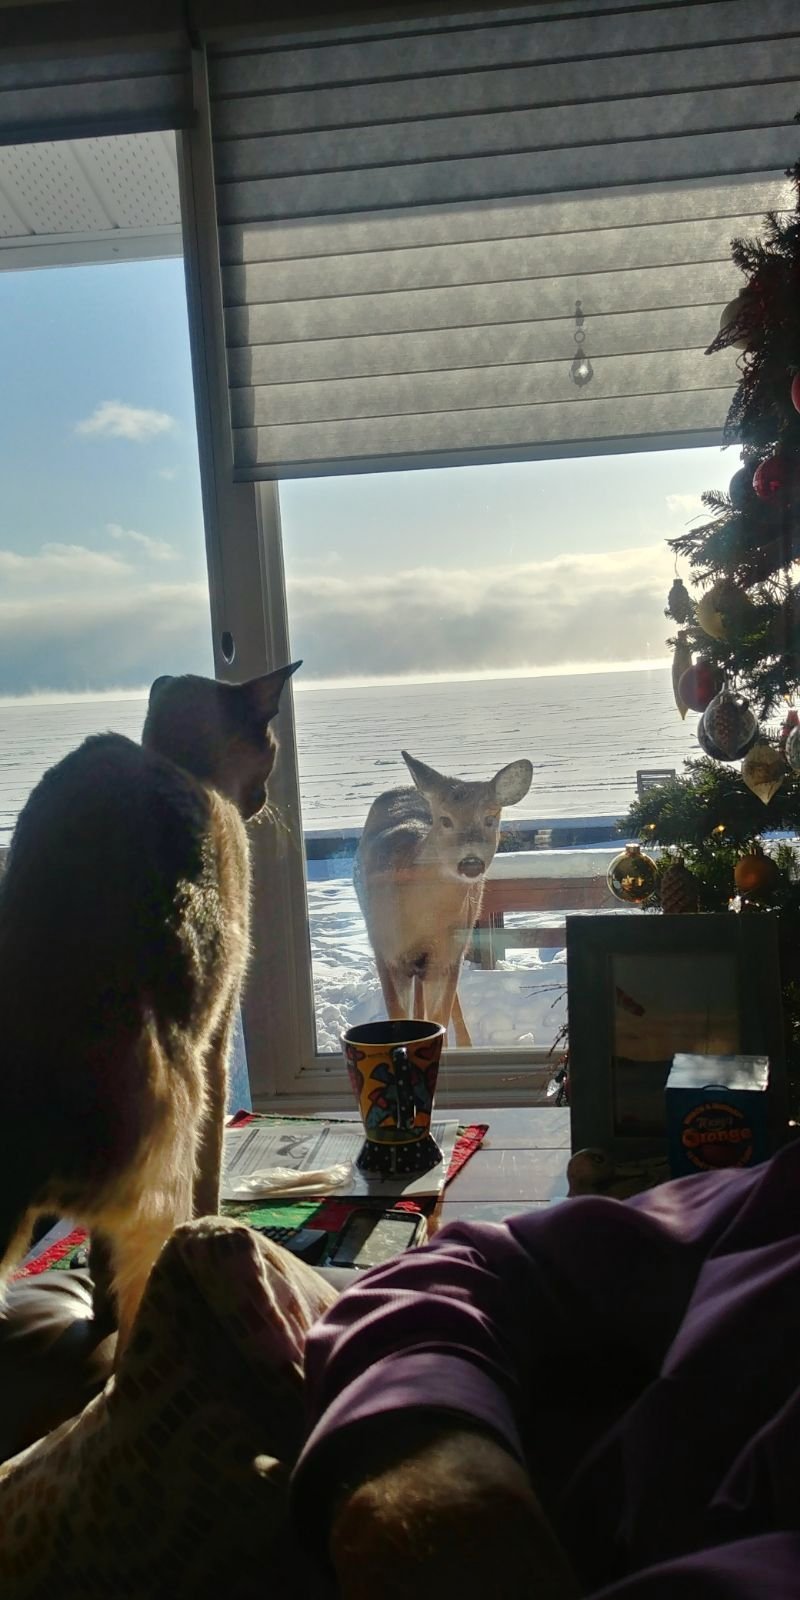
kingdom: Animalia
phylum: Chordata
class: Mammalia
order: Artiodactyla
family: Cervidae
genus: Odocoileus
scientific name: Odocoileus virginianus
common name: White-tailed deer
